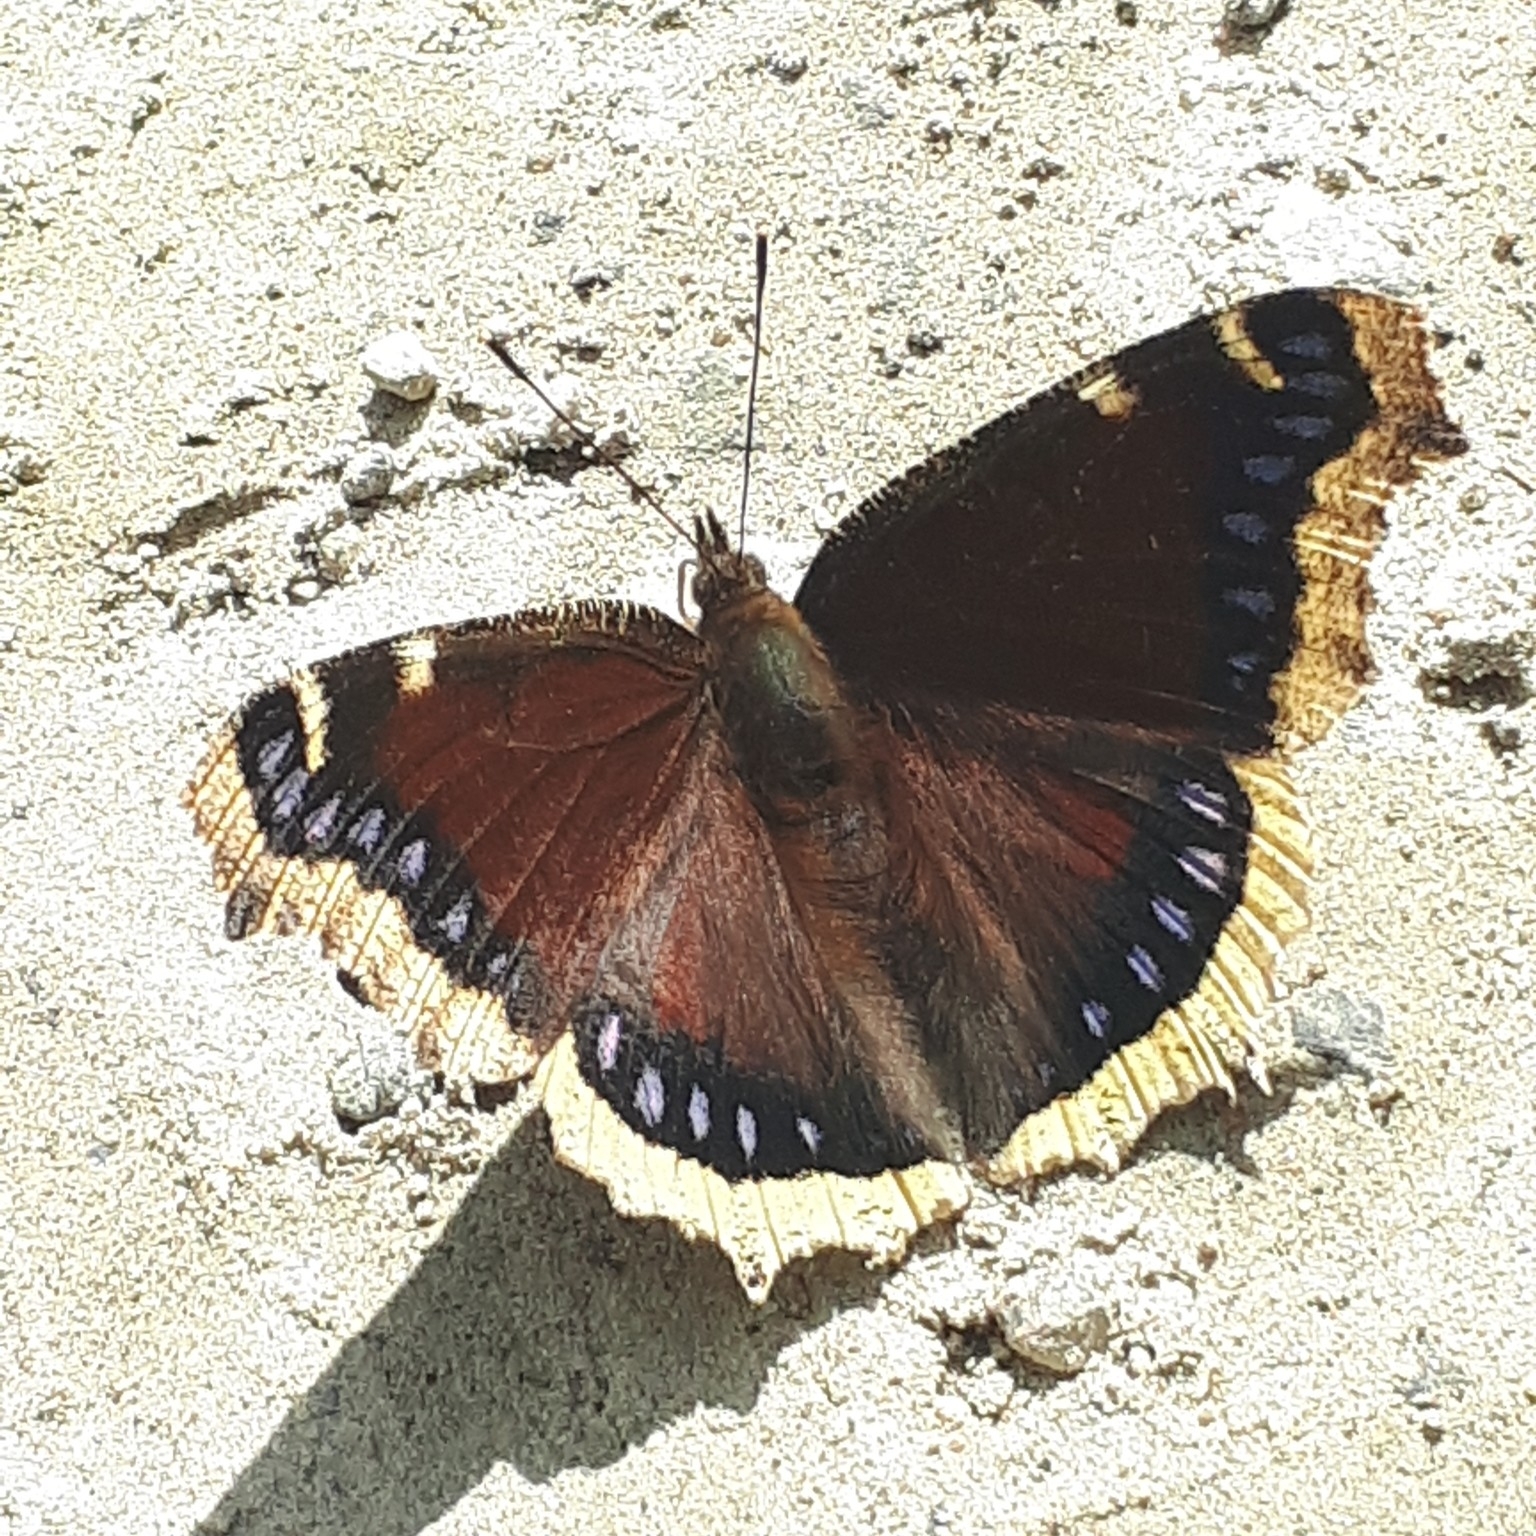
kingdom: Animalia
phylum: Arthropoda
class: Insecta
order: Lepidoptera
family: Nymphalidae
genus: Nymphalis
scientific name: Nymphalis antiopa
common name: Camberwell beauty
